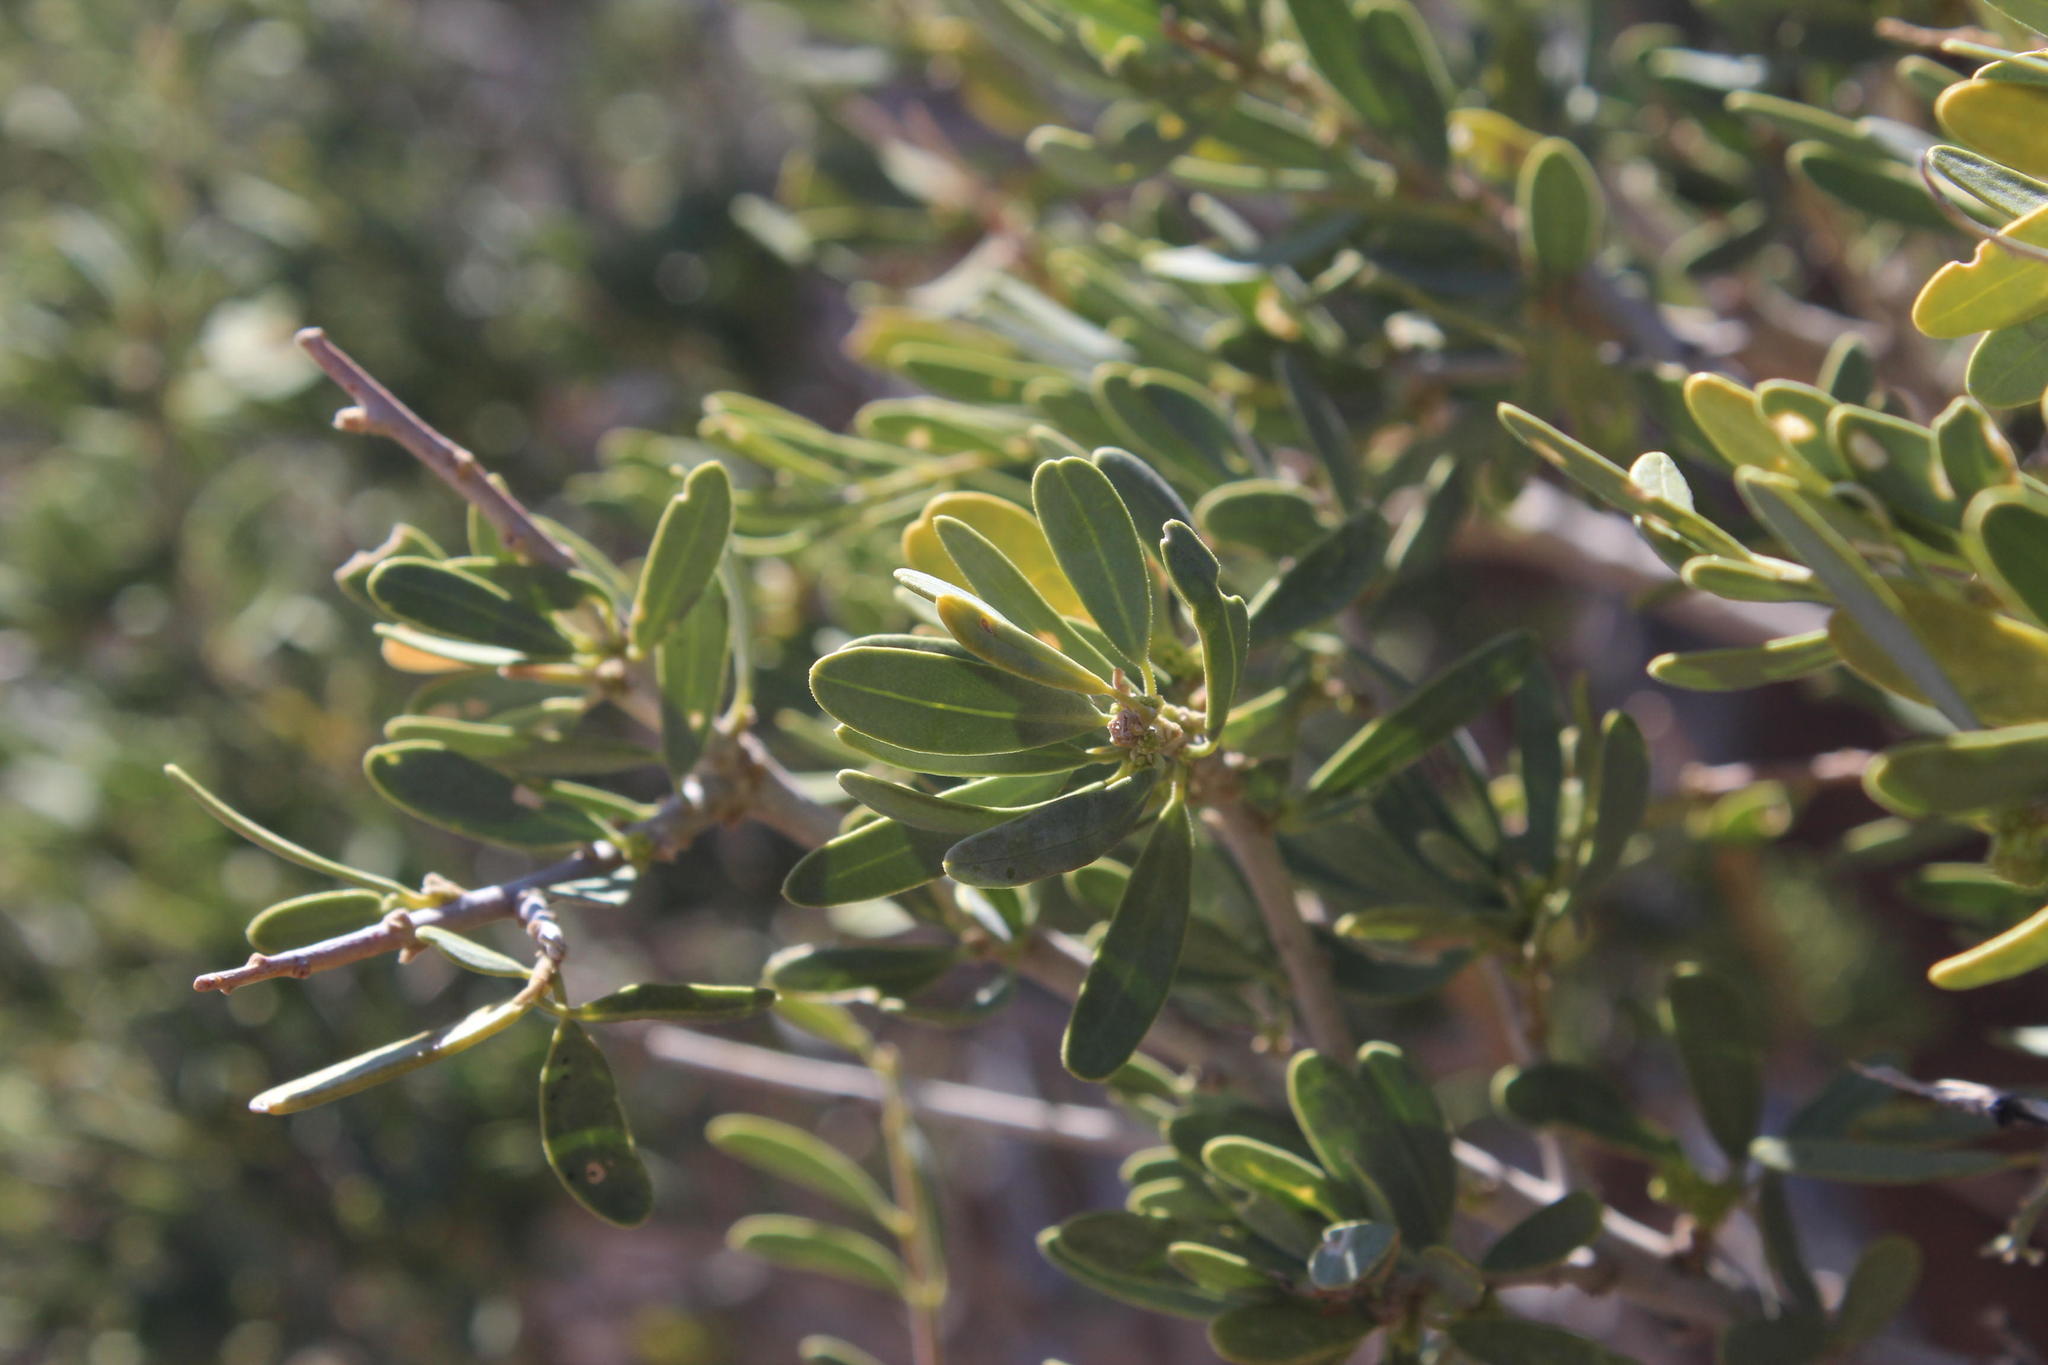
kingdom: Plantae
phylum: Tracheophyta
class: Magnoliopsida
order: Brassicales
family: Capparaceae
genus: Boscia
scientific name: Boscia albitrunca
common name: Caper bush
